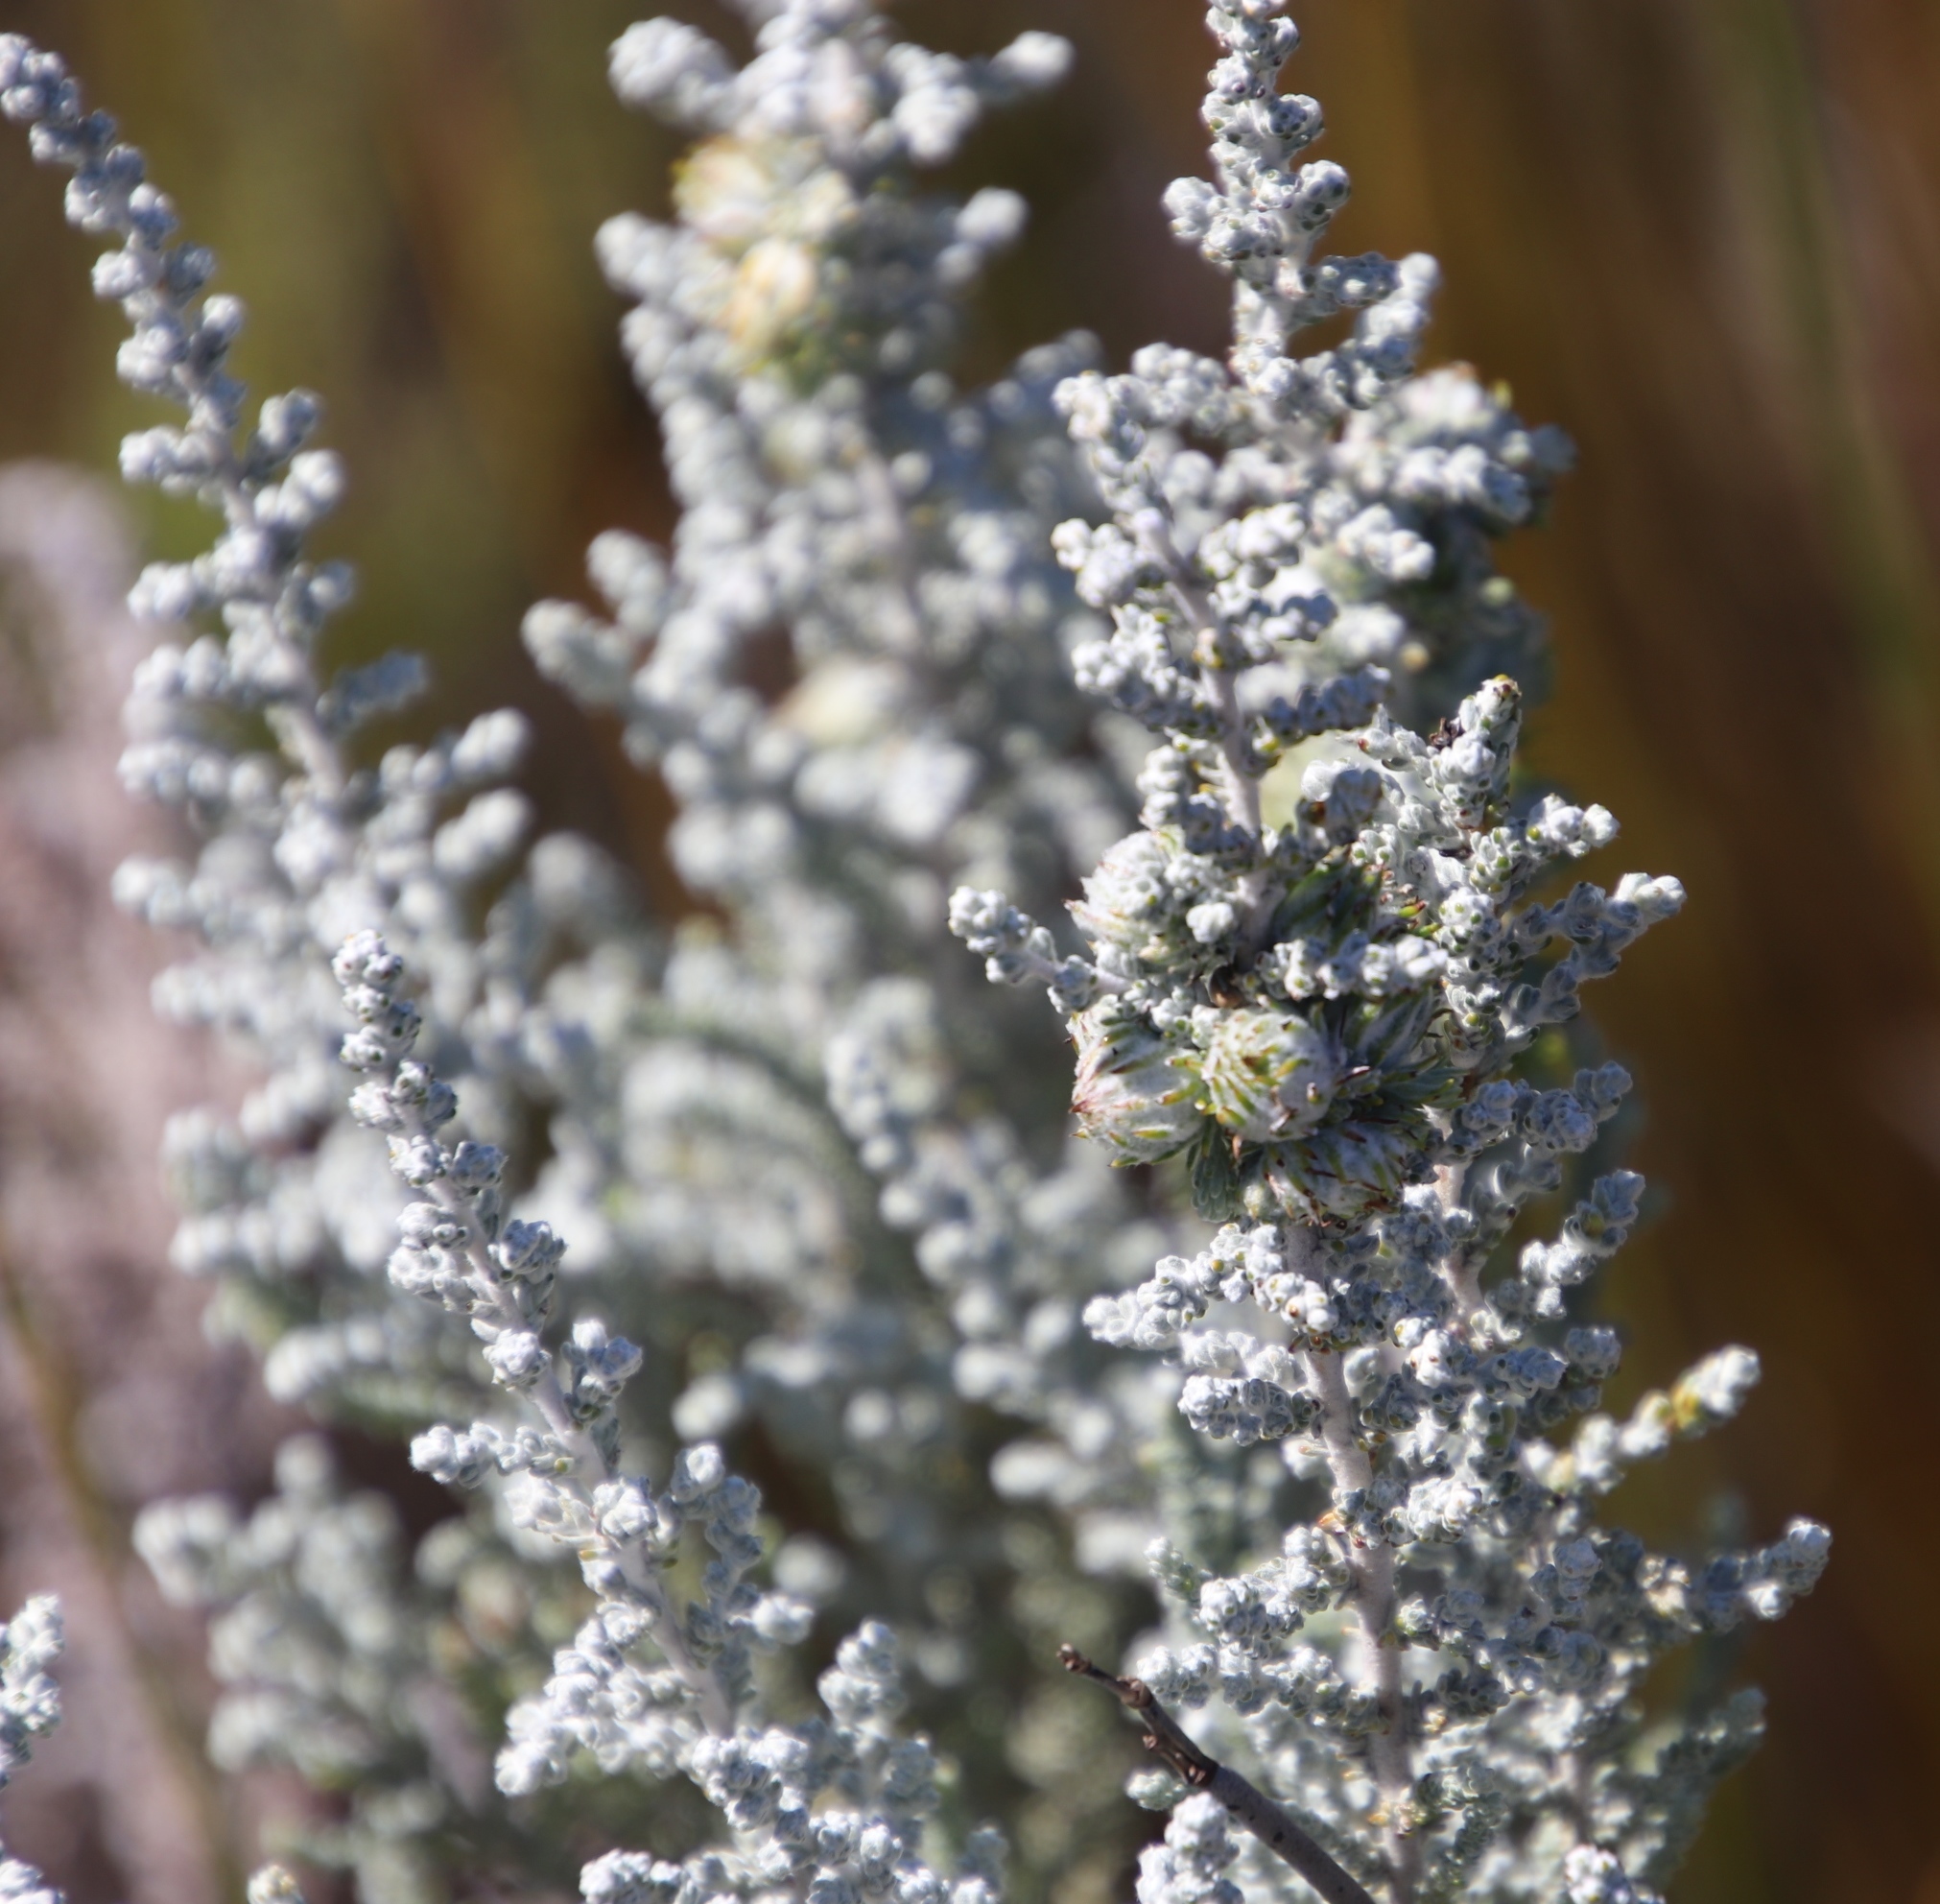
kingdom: Plantae
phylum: Tracheophyta
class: Magnoliopsida
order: Asterales
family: Asteraceae
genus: Seriphium
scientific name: Seriphium plumosum
